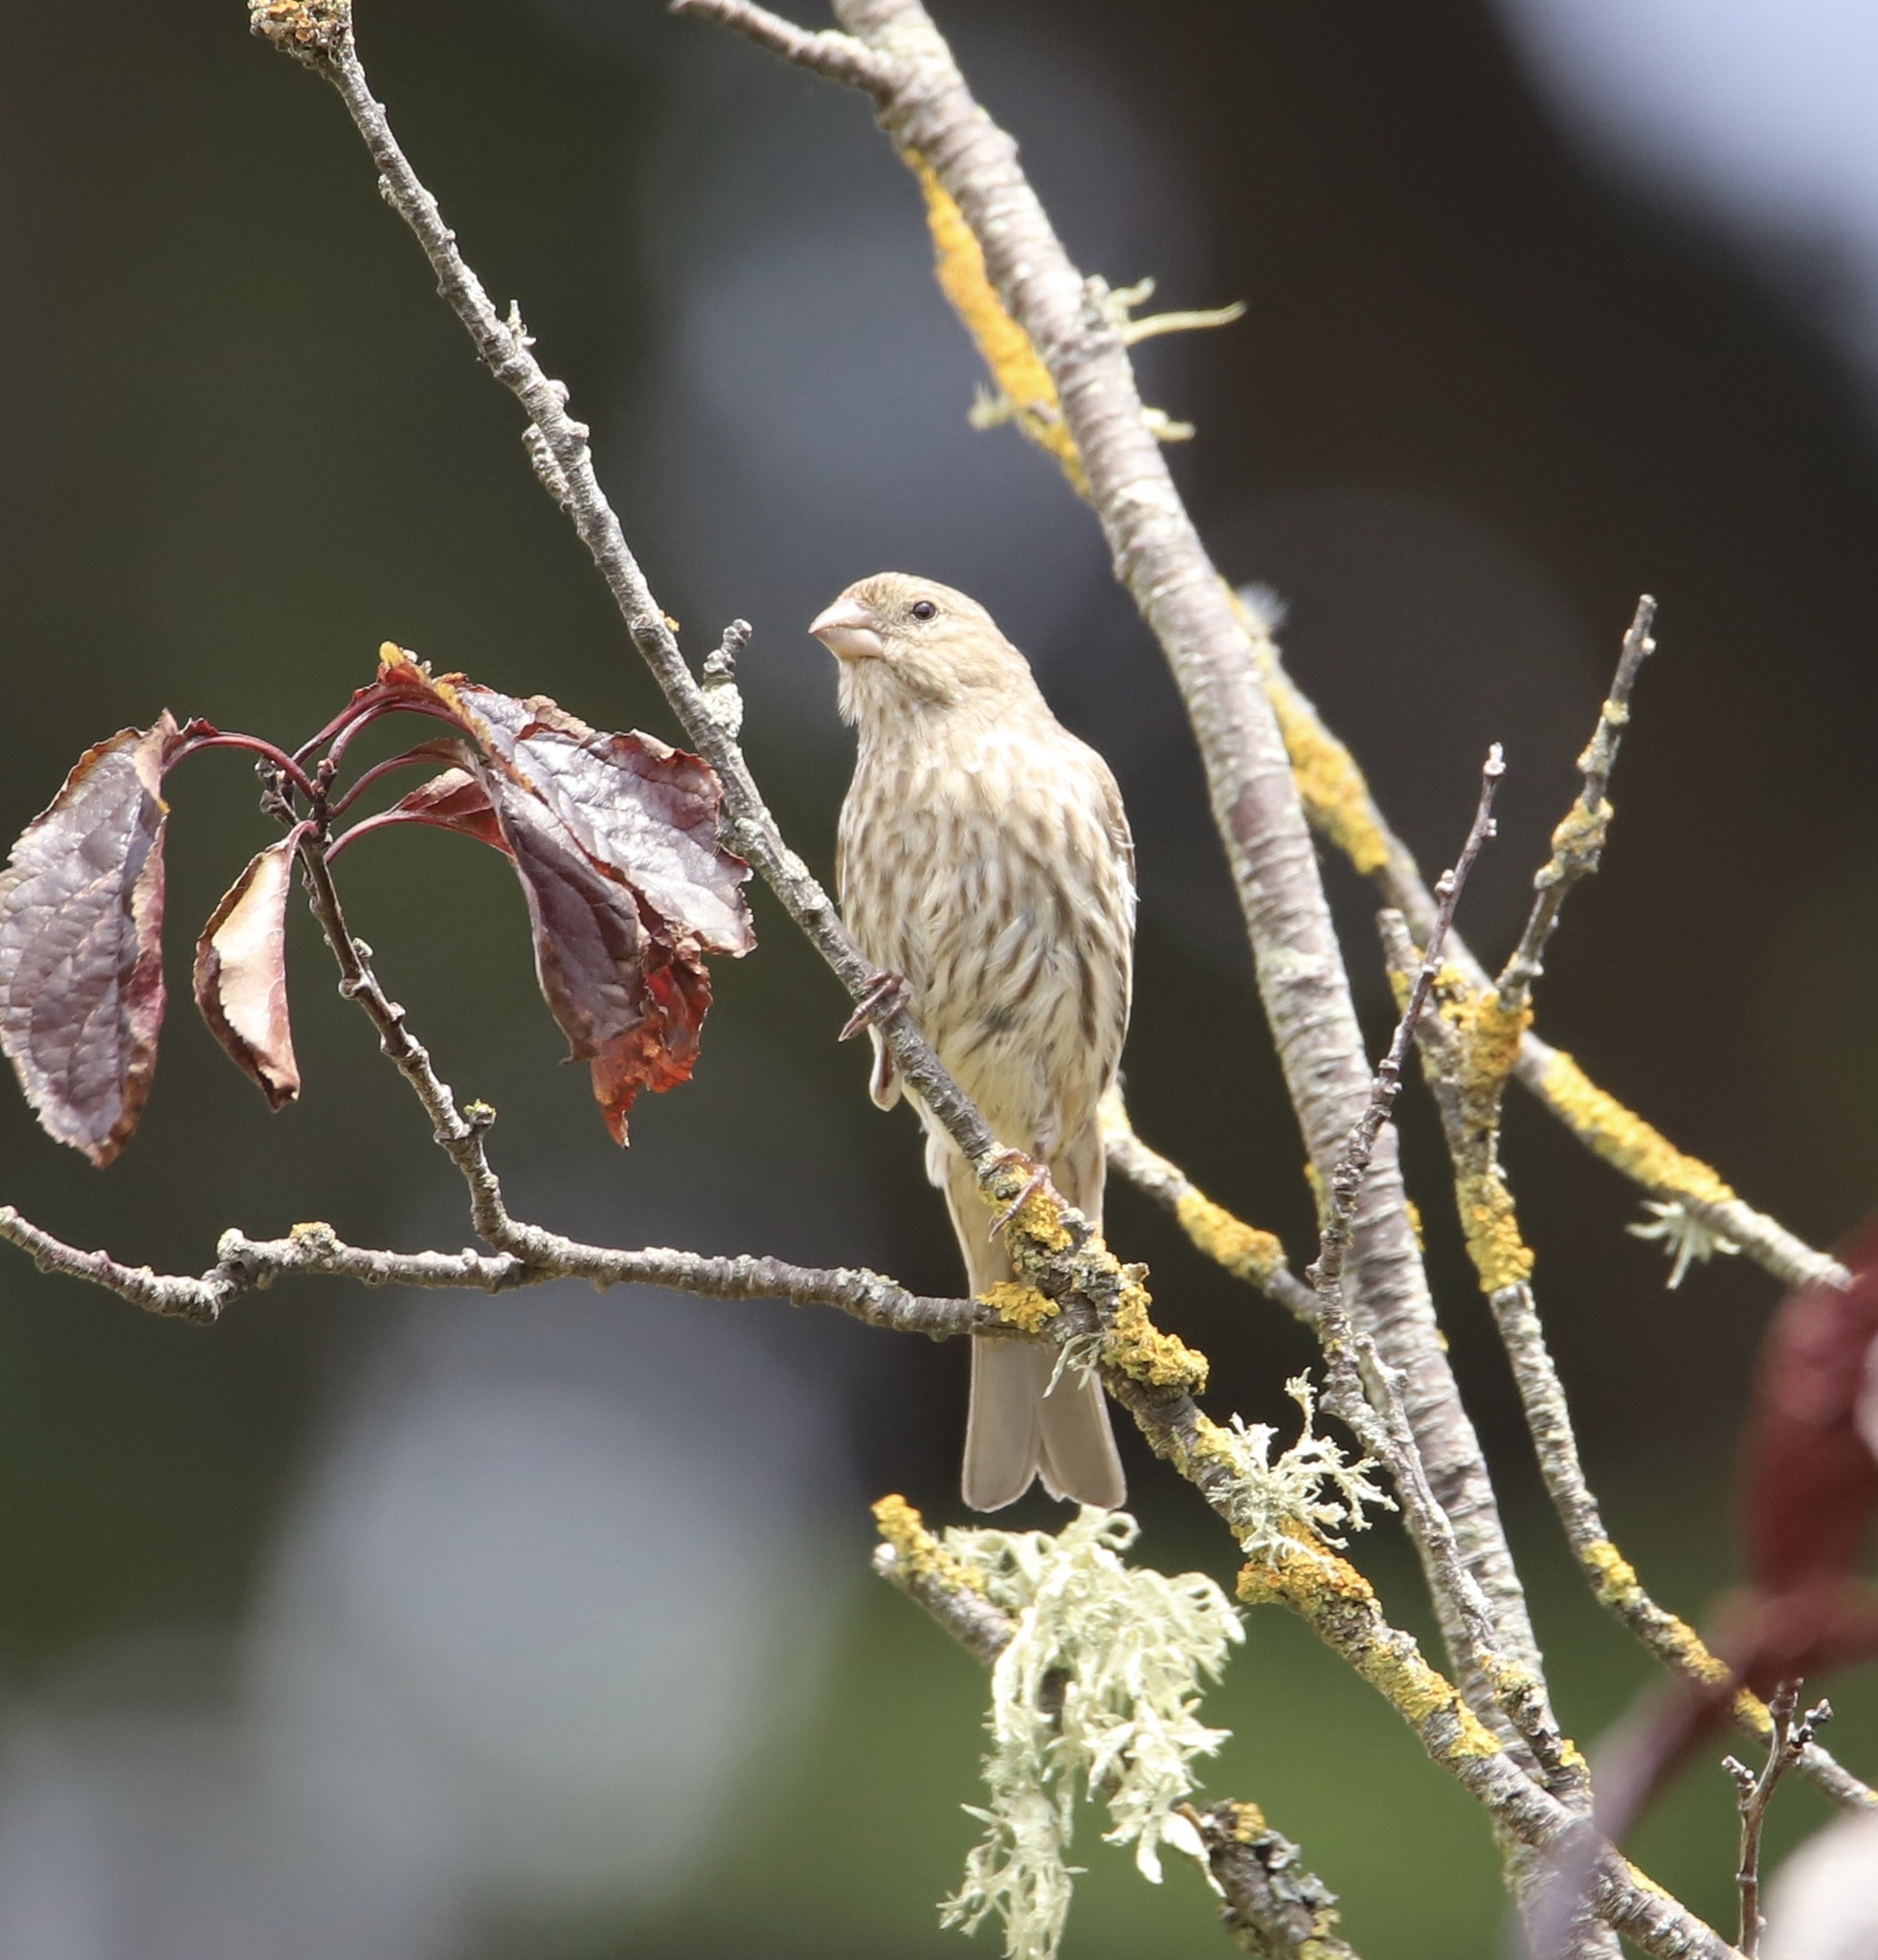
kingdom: Animalia
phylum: Chordata
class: Aves
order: Passeriformes
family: Fringillidae
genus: Haemorhous
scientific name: Haemorhous mexicanus
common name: House finch
